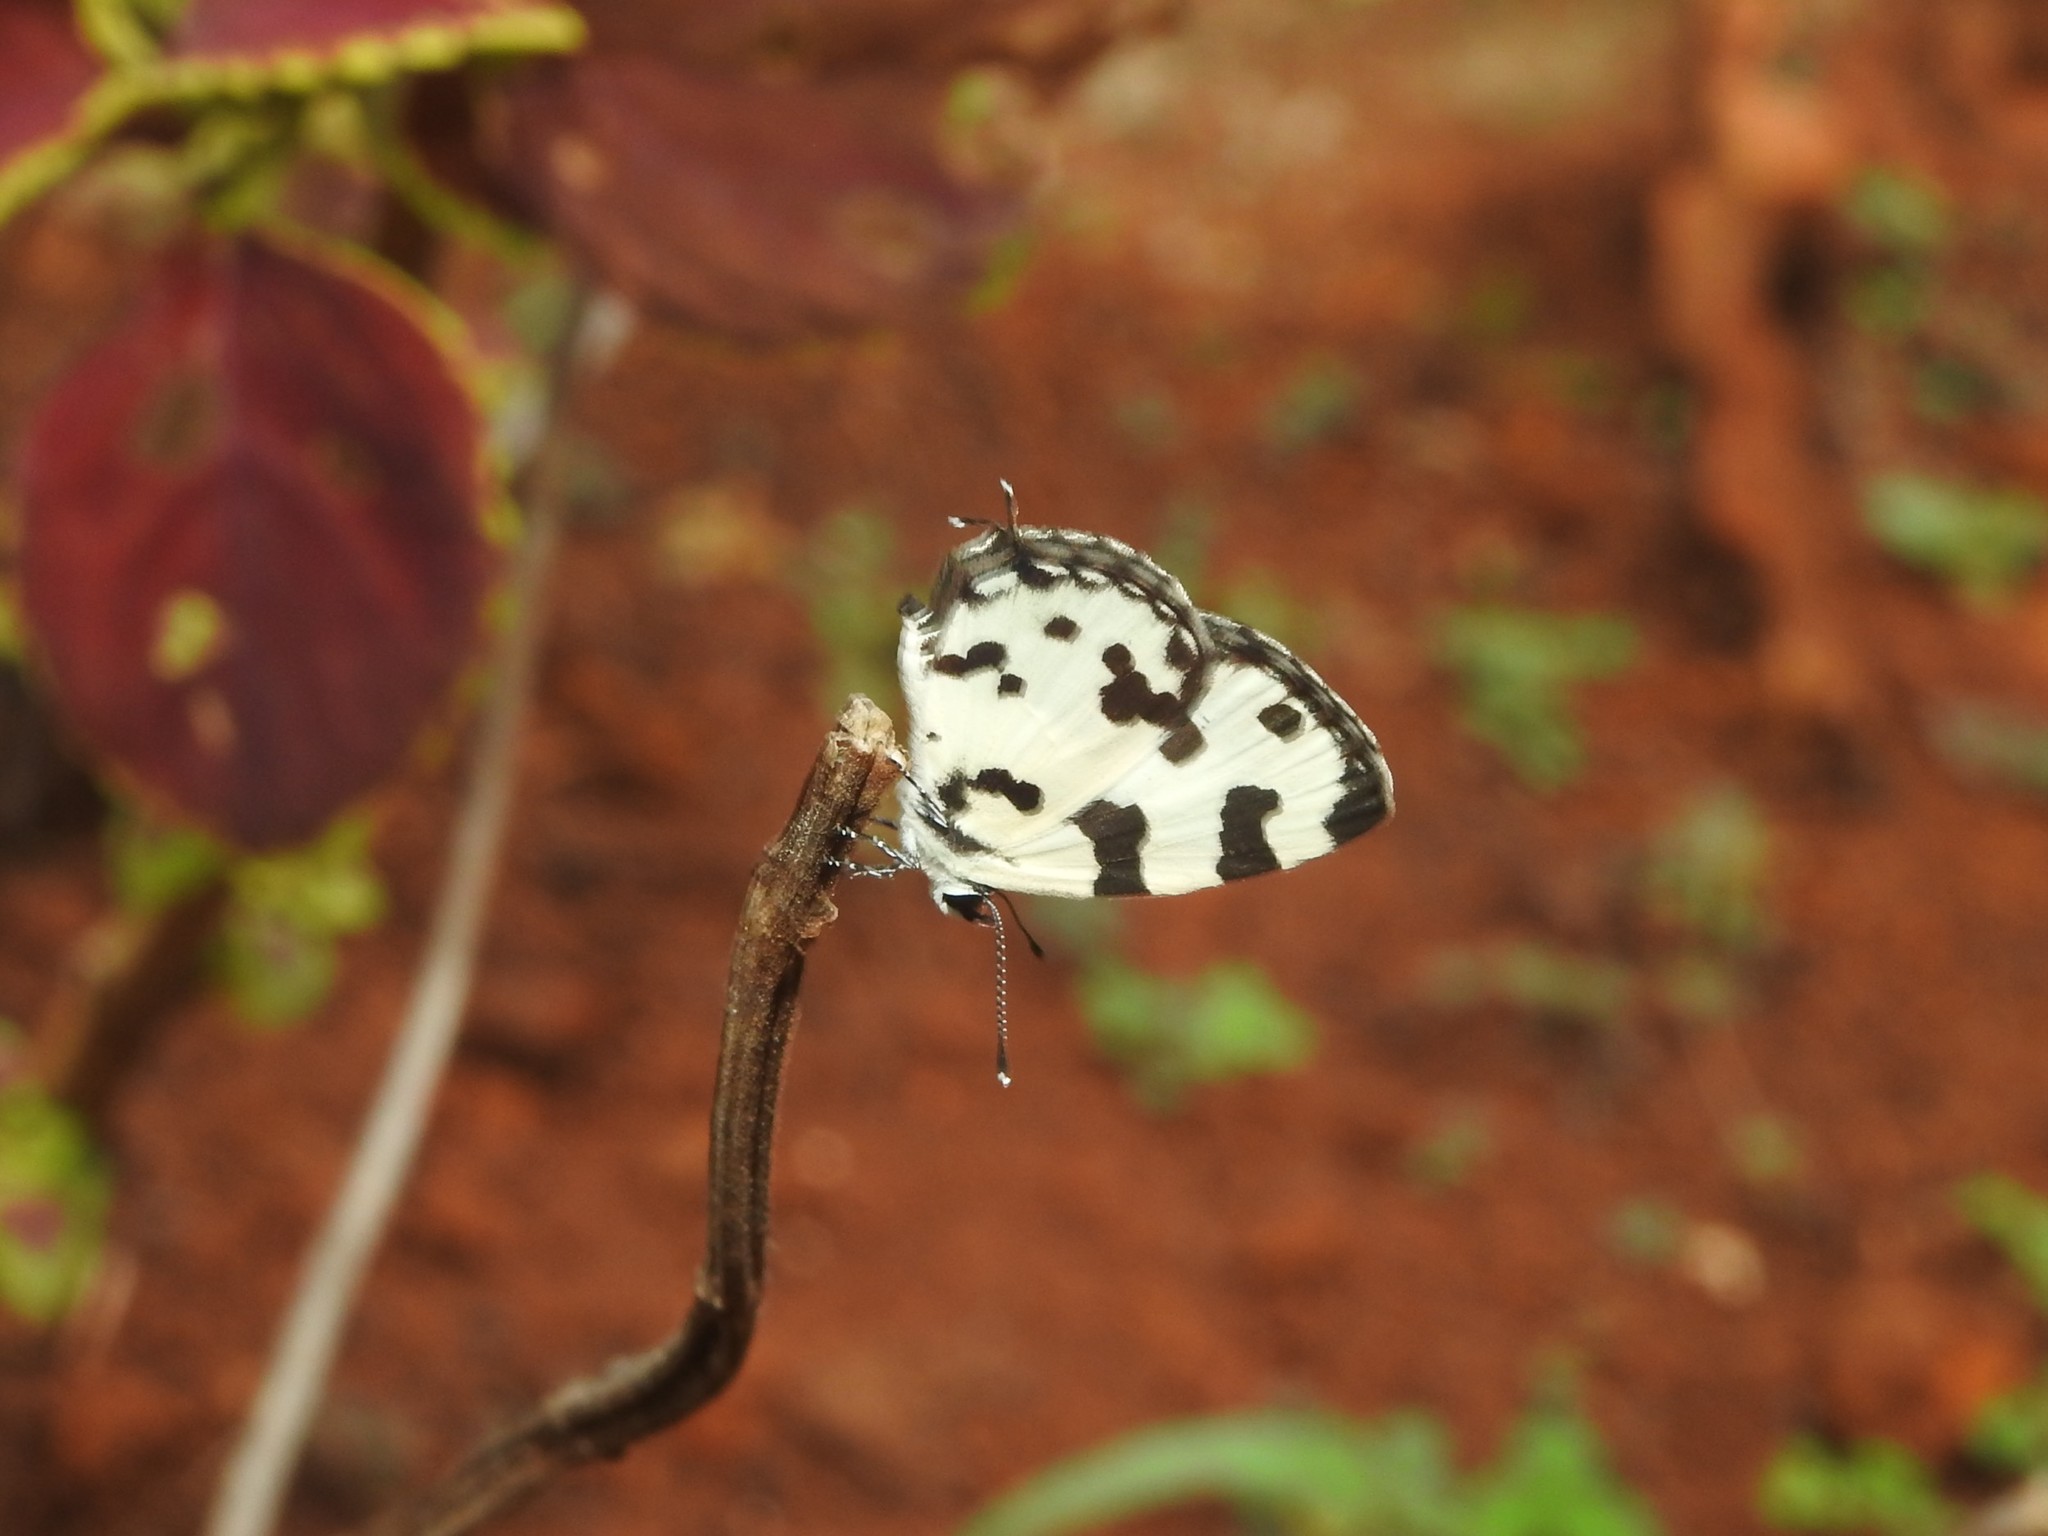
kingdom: Animalia
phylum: Arthropoda
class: Insecta
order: Lepidoptera
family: Lycaenidae
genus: Caleta
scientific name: Caleta decidia
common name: Angled pierrot
